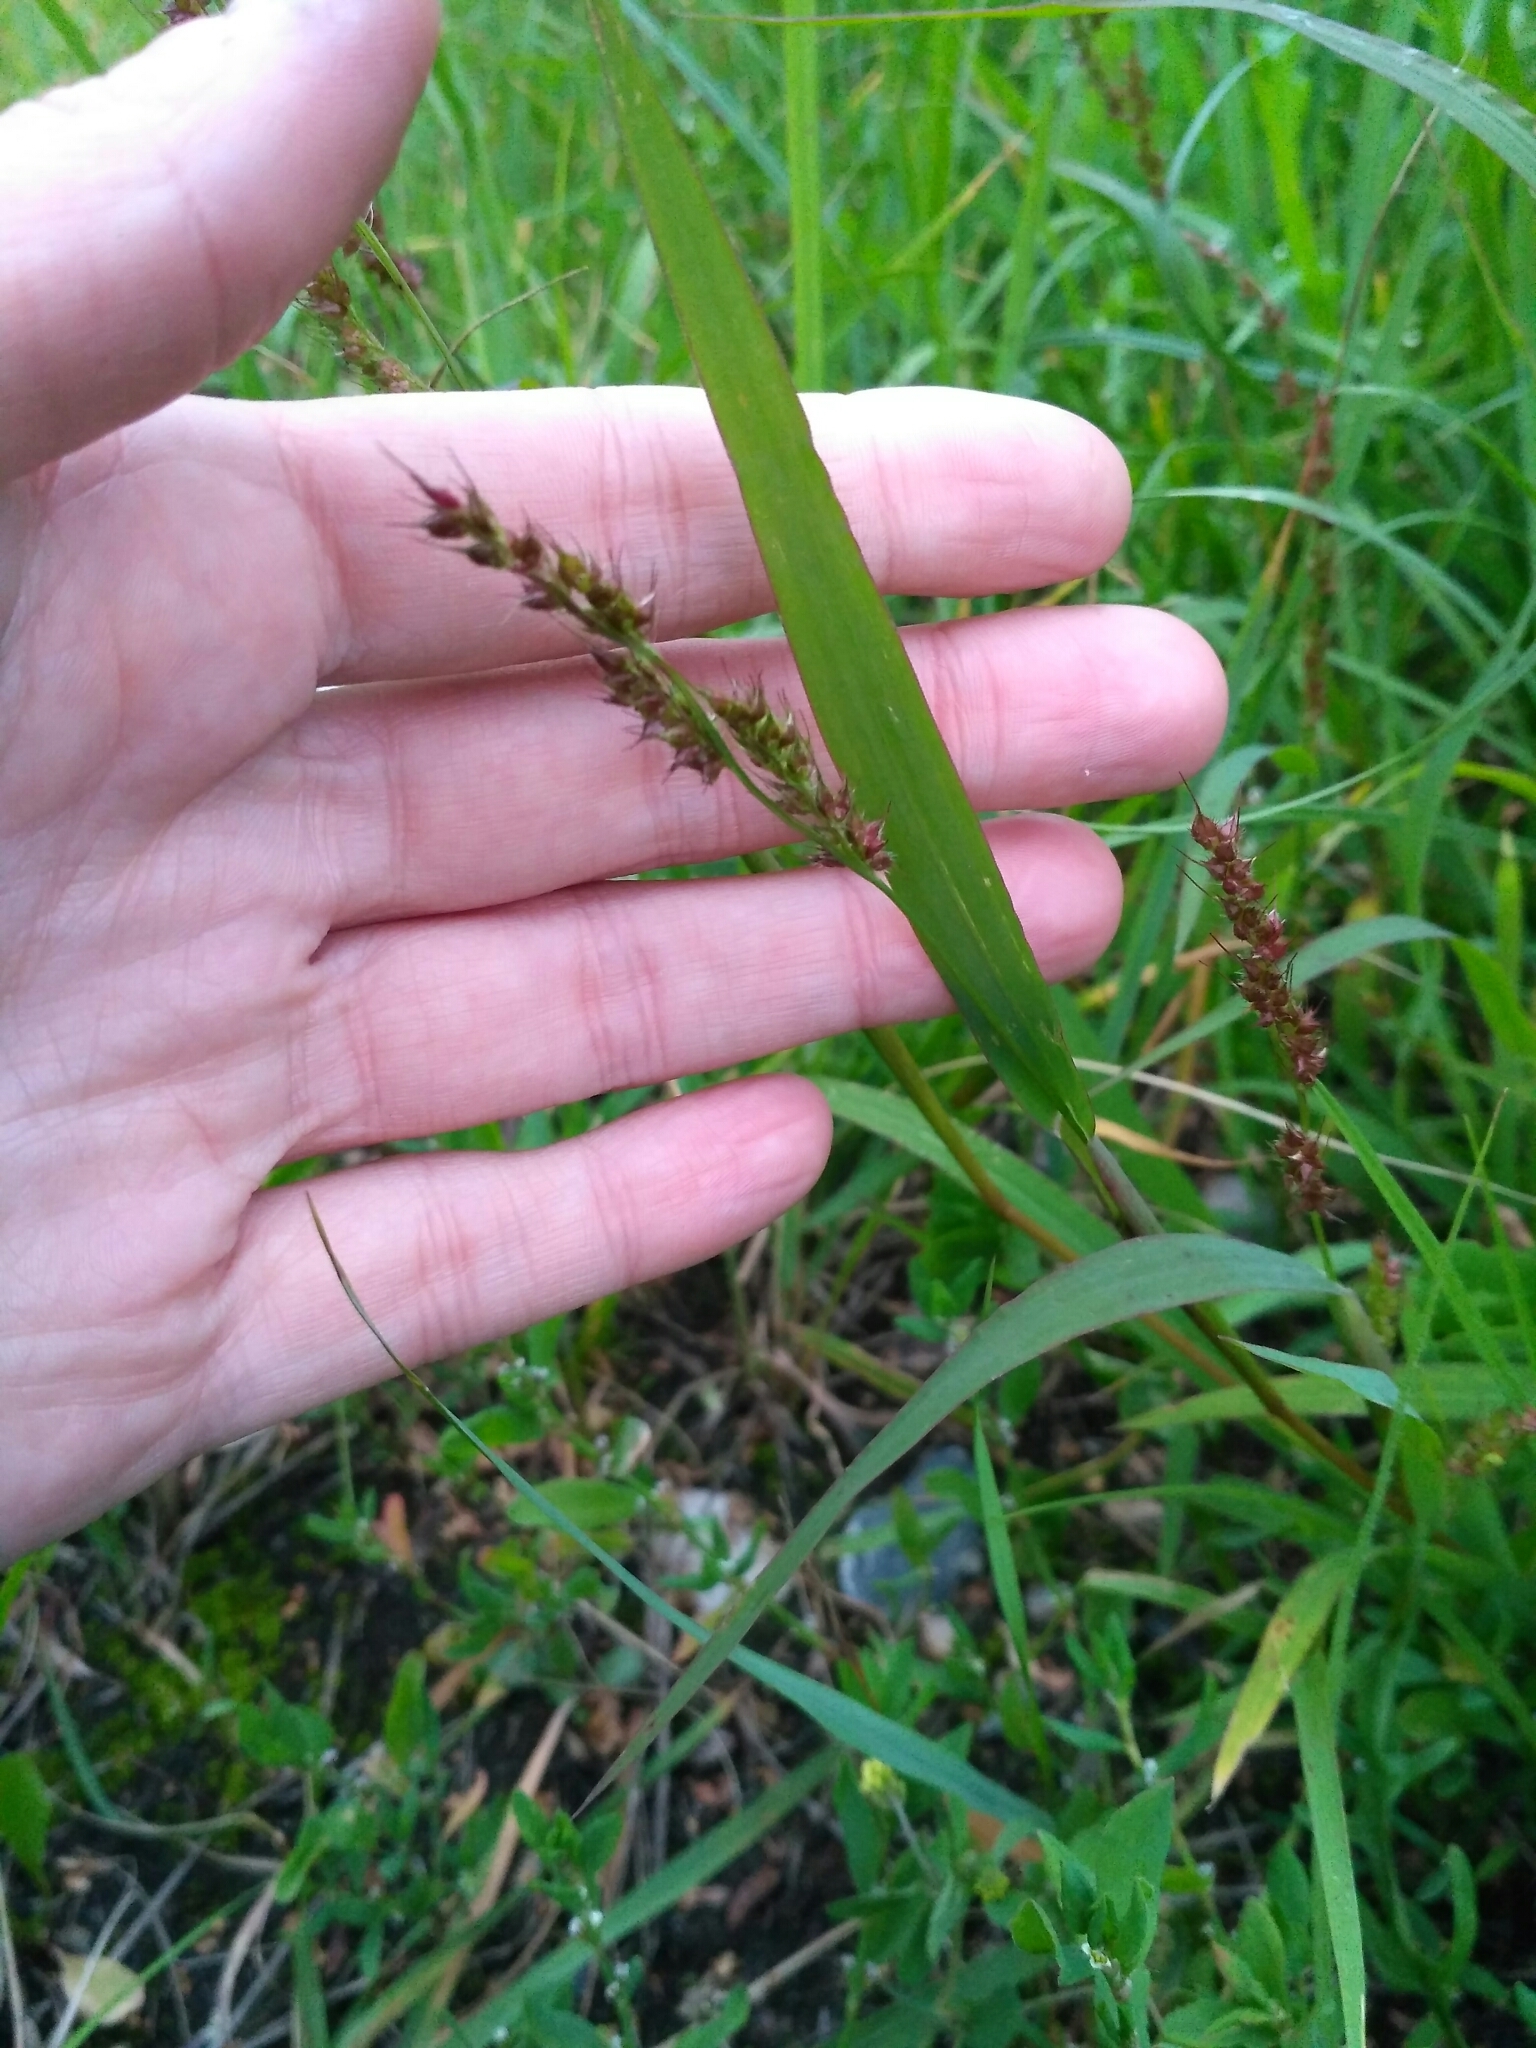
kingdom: Plantae
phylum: Tracheophyta
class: Liliopsida
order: Poales
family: Poaceae
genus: Echinochloa
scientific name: Echinochloa crus-galli
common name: Cockspur
